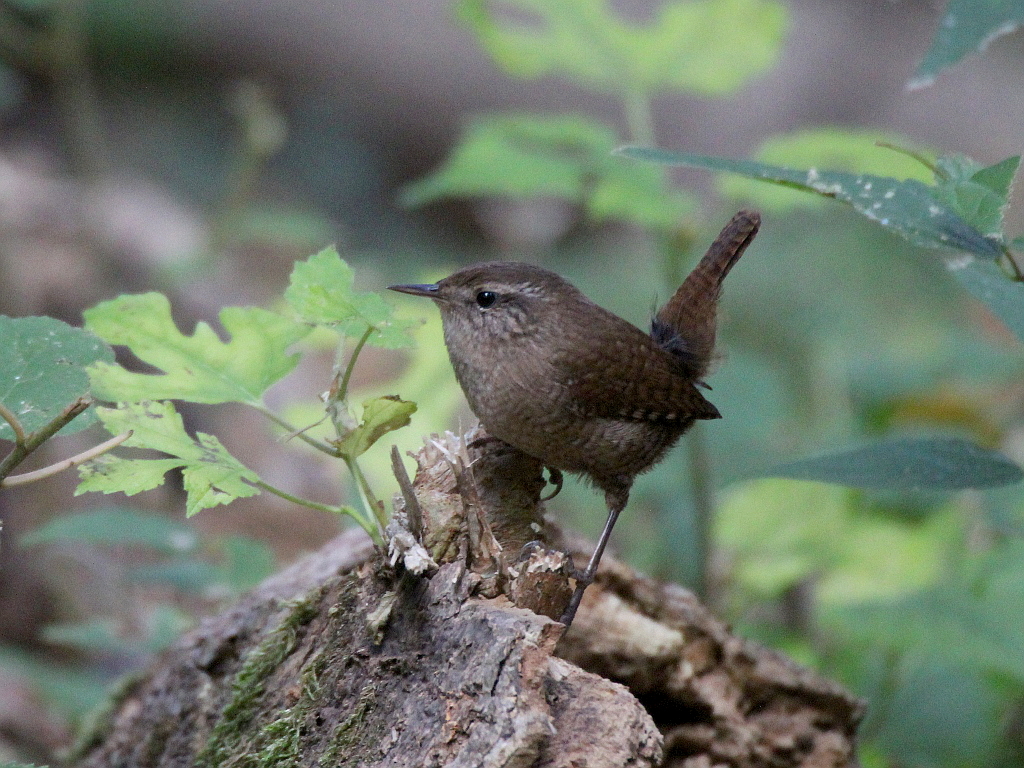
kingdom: Animalia
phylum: Chordata
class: Aves
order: Passeriformes
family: Troglodytidae
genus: Troglodytes
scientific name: Troglodytes troglodytes
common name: Eurasian wren
